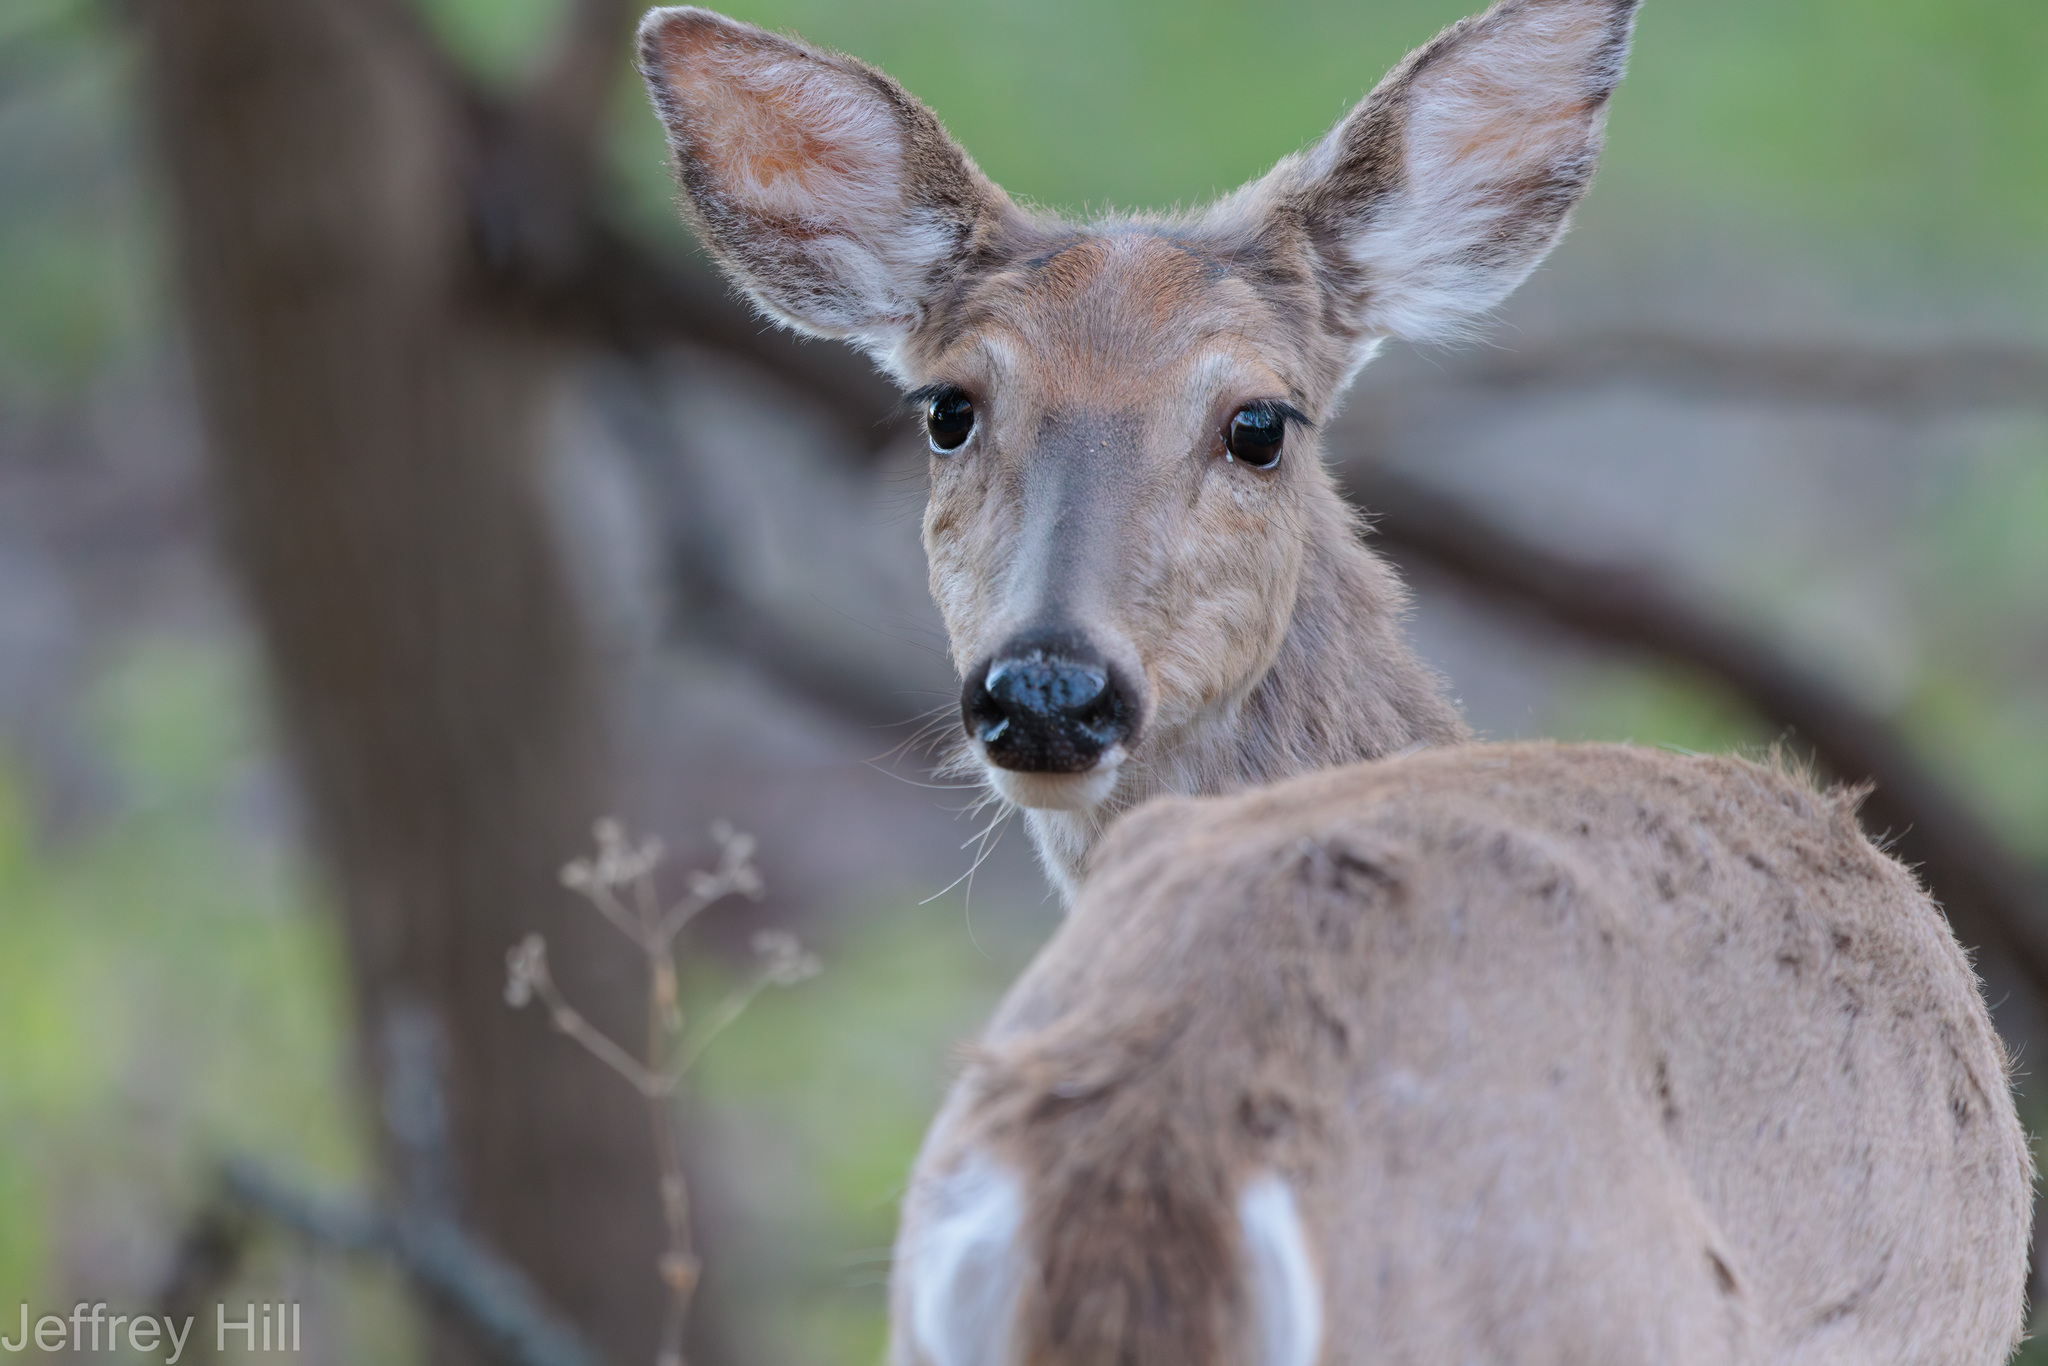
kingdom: Animalia
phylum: Chordata
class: Mammalia
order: Artiodactyla
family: Cervidae
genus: Odocoileus
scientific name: Odocoileus virginianus
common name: White-tailed deer
